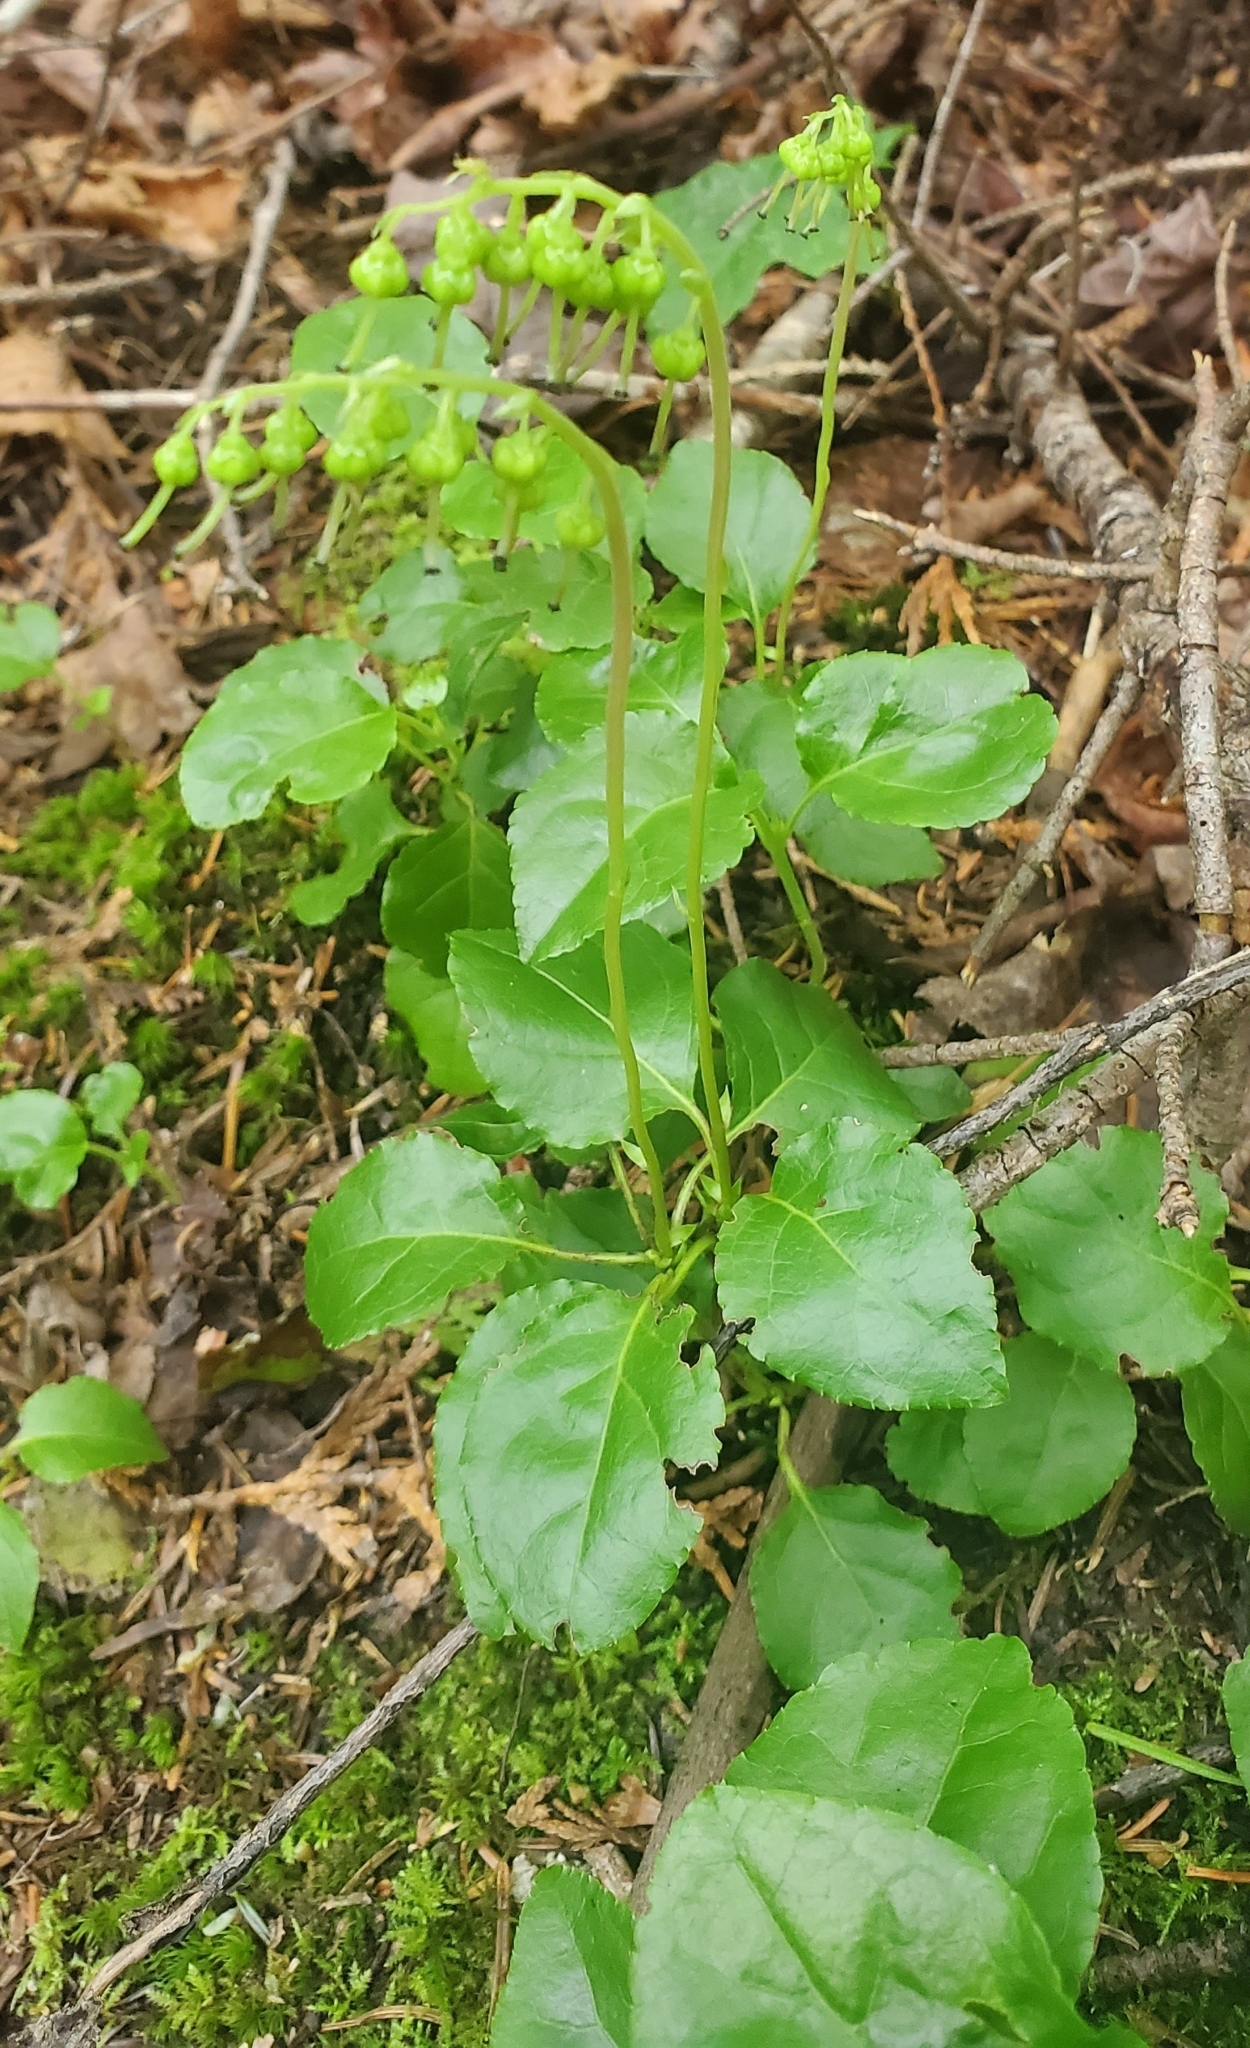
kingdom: Plantae
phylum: Tracheophyta
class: Magnoliopsida
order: Ericales
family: Ericaceae
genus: Orthilia
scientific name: Orthilia secunda
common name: One-sided orthilia
